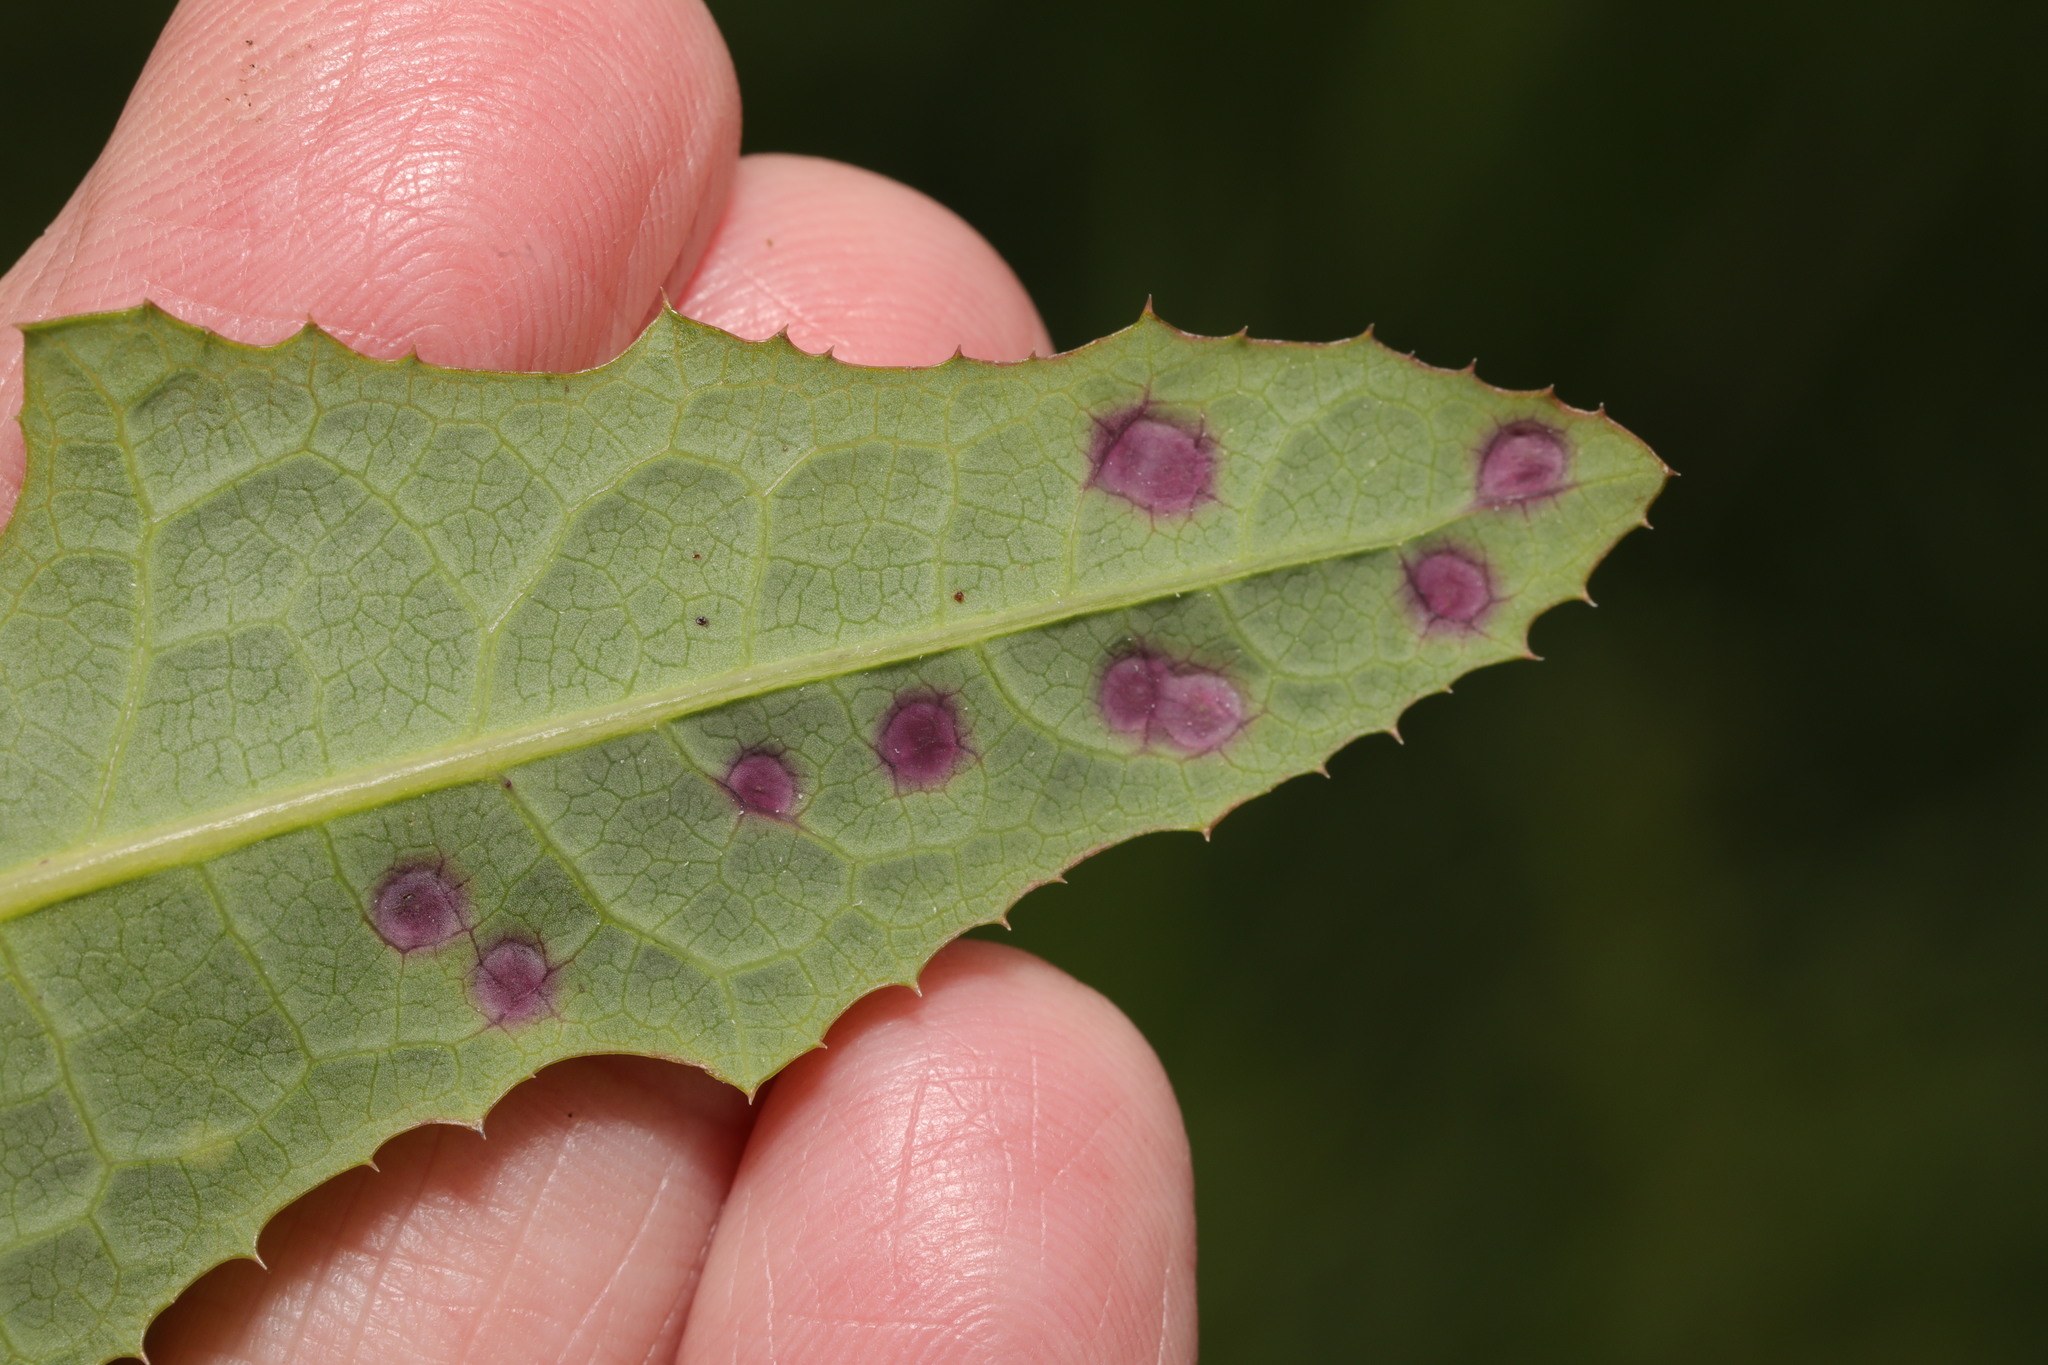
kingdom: Animalia
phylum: Arthropoda
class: Insecta
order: Diptera
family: Cecidomyiidae
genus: Cystiphora
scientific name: Cystiphora sonchi
